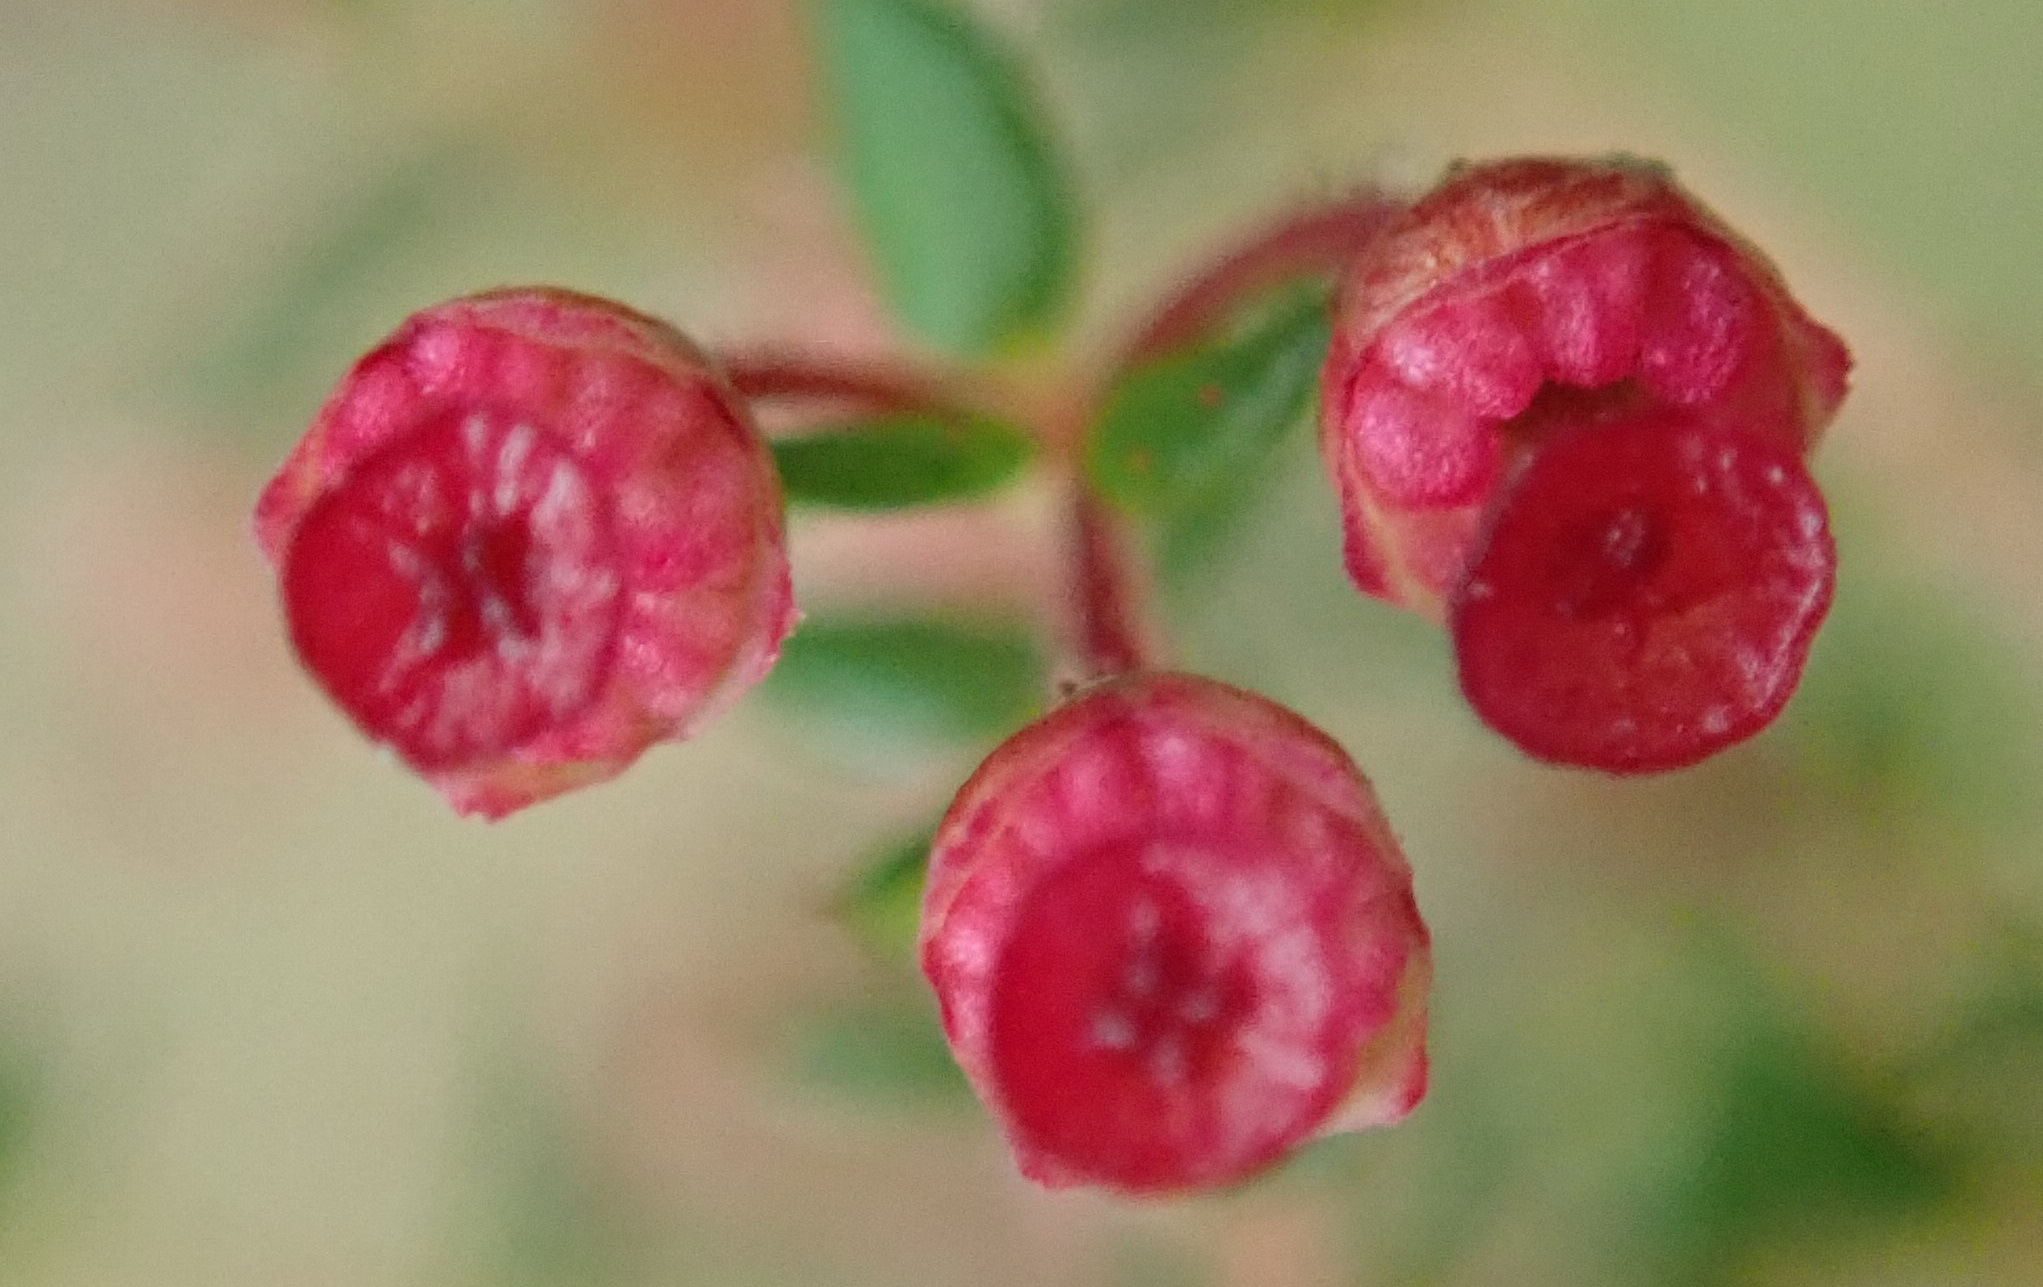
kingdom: Plantae
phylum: Tracheophyta
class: Magnoliopsida
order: Ericales
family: Ericaceae
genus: Erica
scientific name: Erica madida
